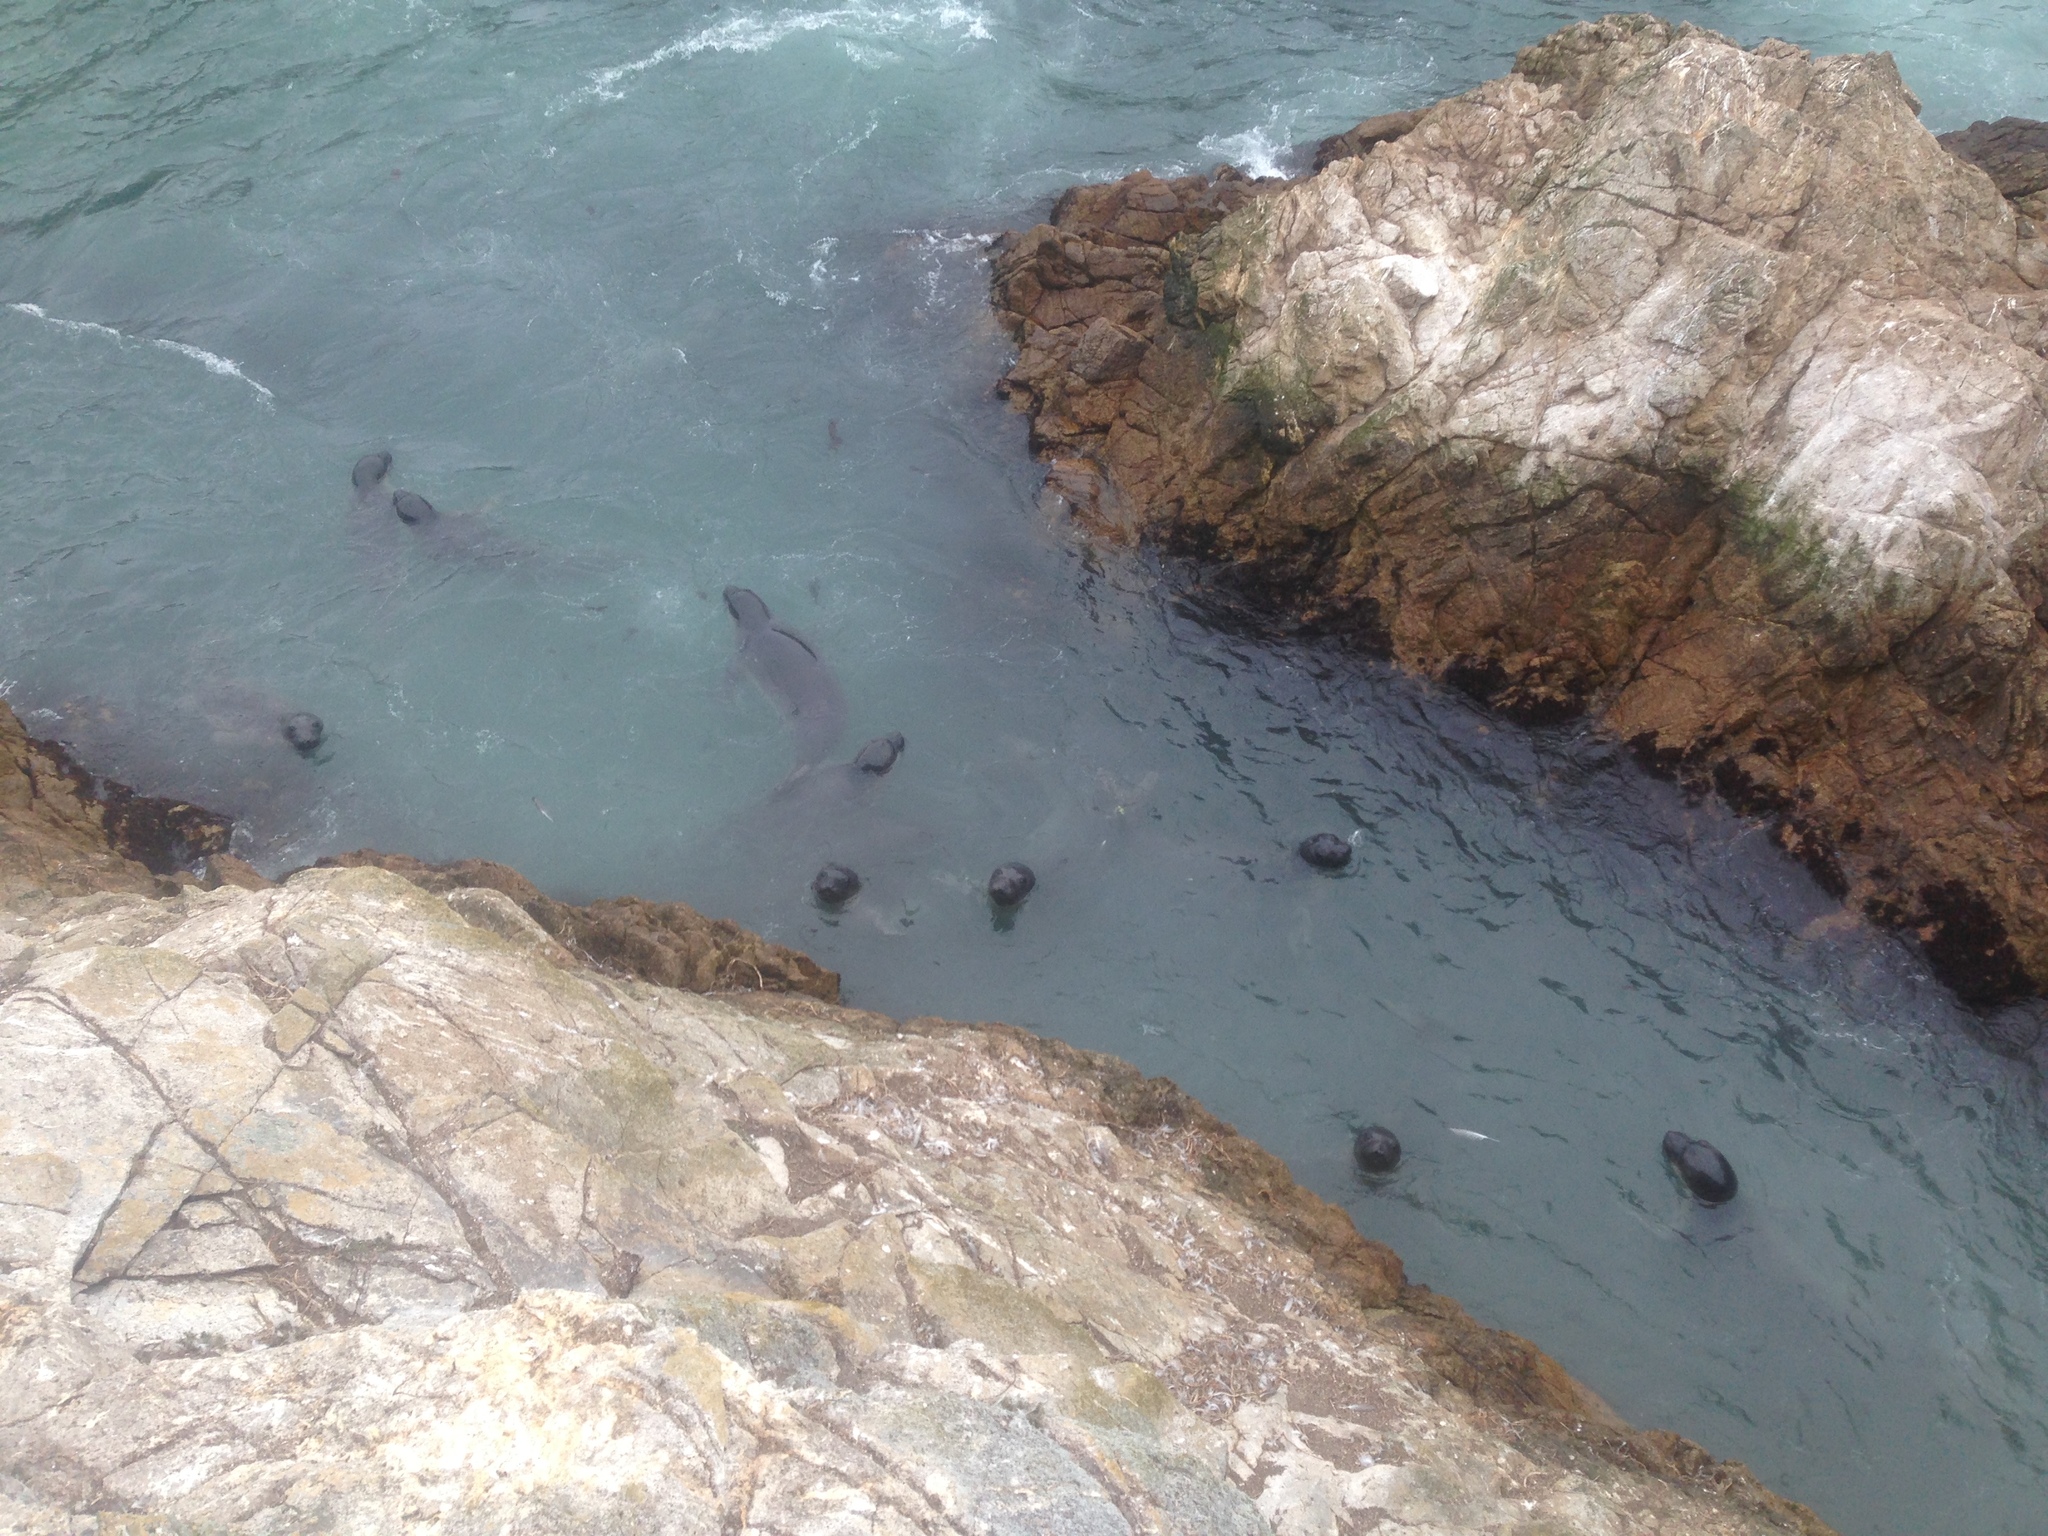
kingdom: Animalia
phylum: Chordata
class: Mammalia
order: Carnivora
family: Phocidae
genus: Mirounga
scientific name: Mirounga angustirostris
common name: Northern elephant seal
